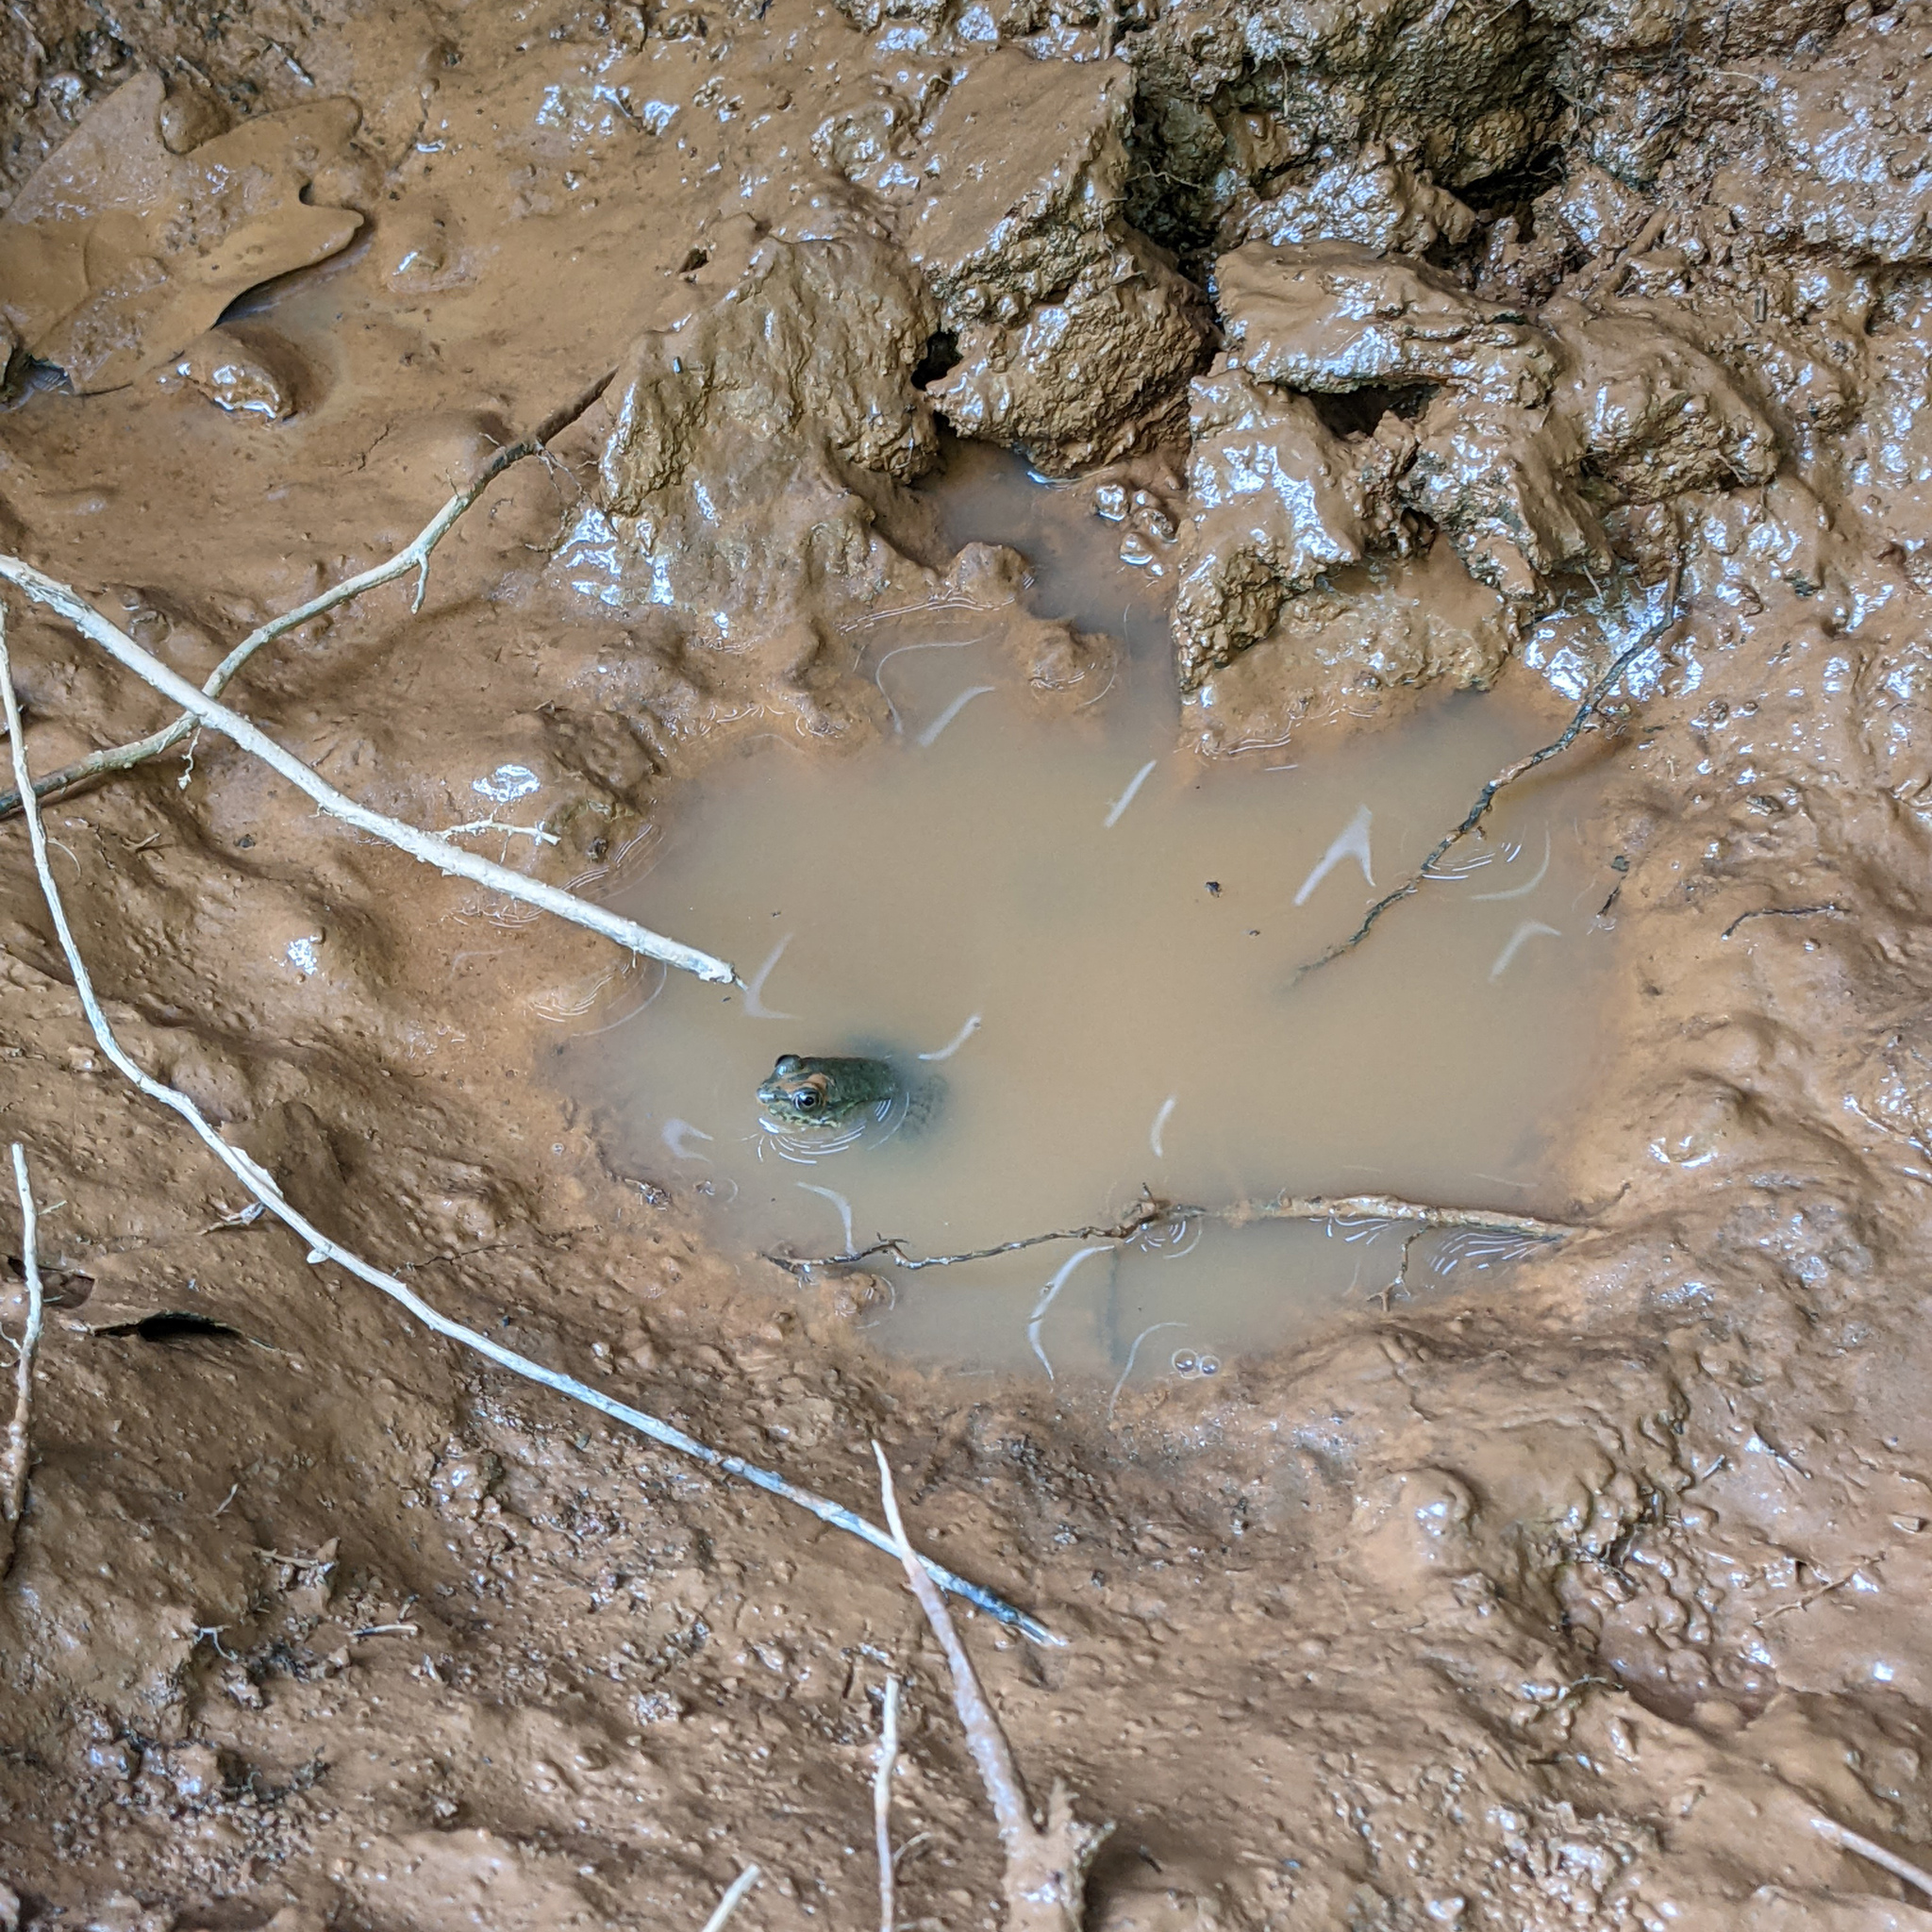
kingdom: Animalia
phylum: Chordata
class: Amphibia
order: Anura
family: Ranidae
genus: Lithobates
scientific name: Lithobates clamitans
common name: Green frog
